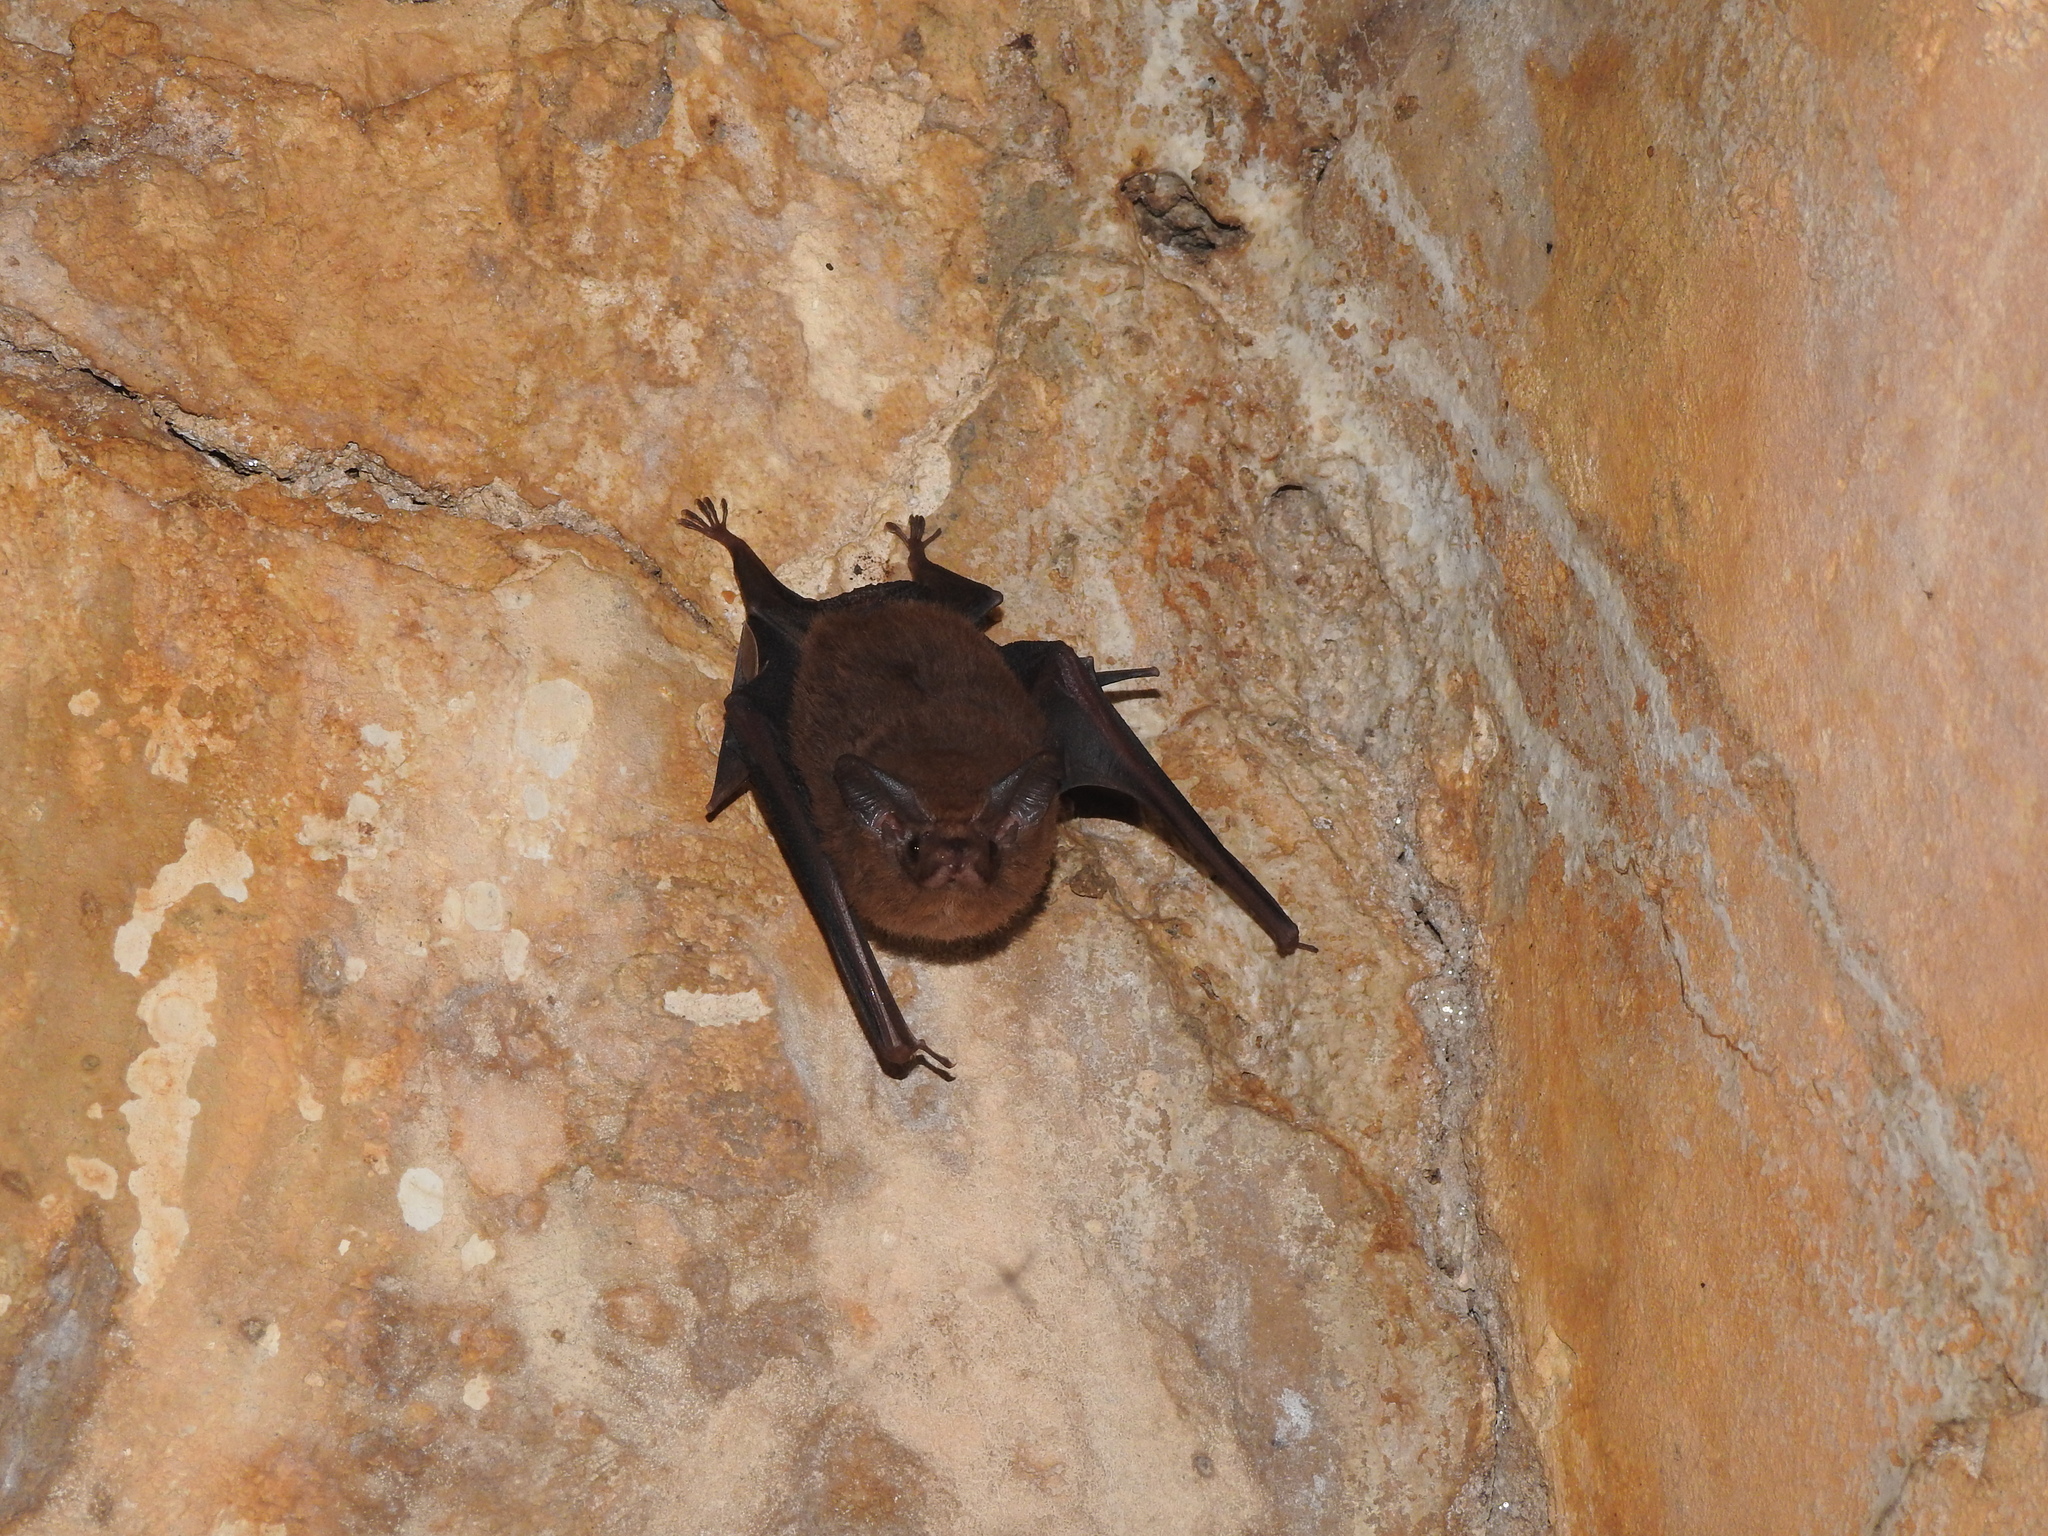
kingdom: Animalia
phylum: Chordata
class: Mammalia
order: Chiroptera
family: Emballonuridae
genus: Peropteryx
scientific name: Peropteryx macrotis
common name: Lesser dog-like bat
